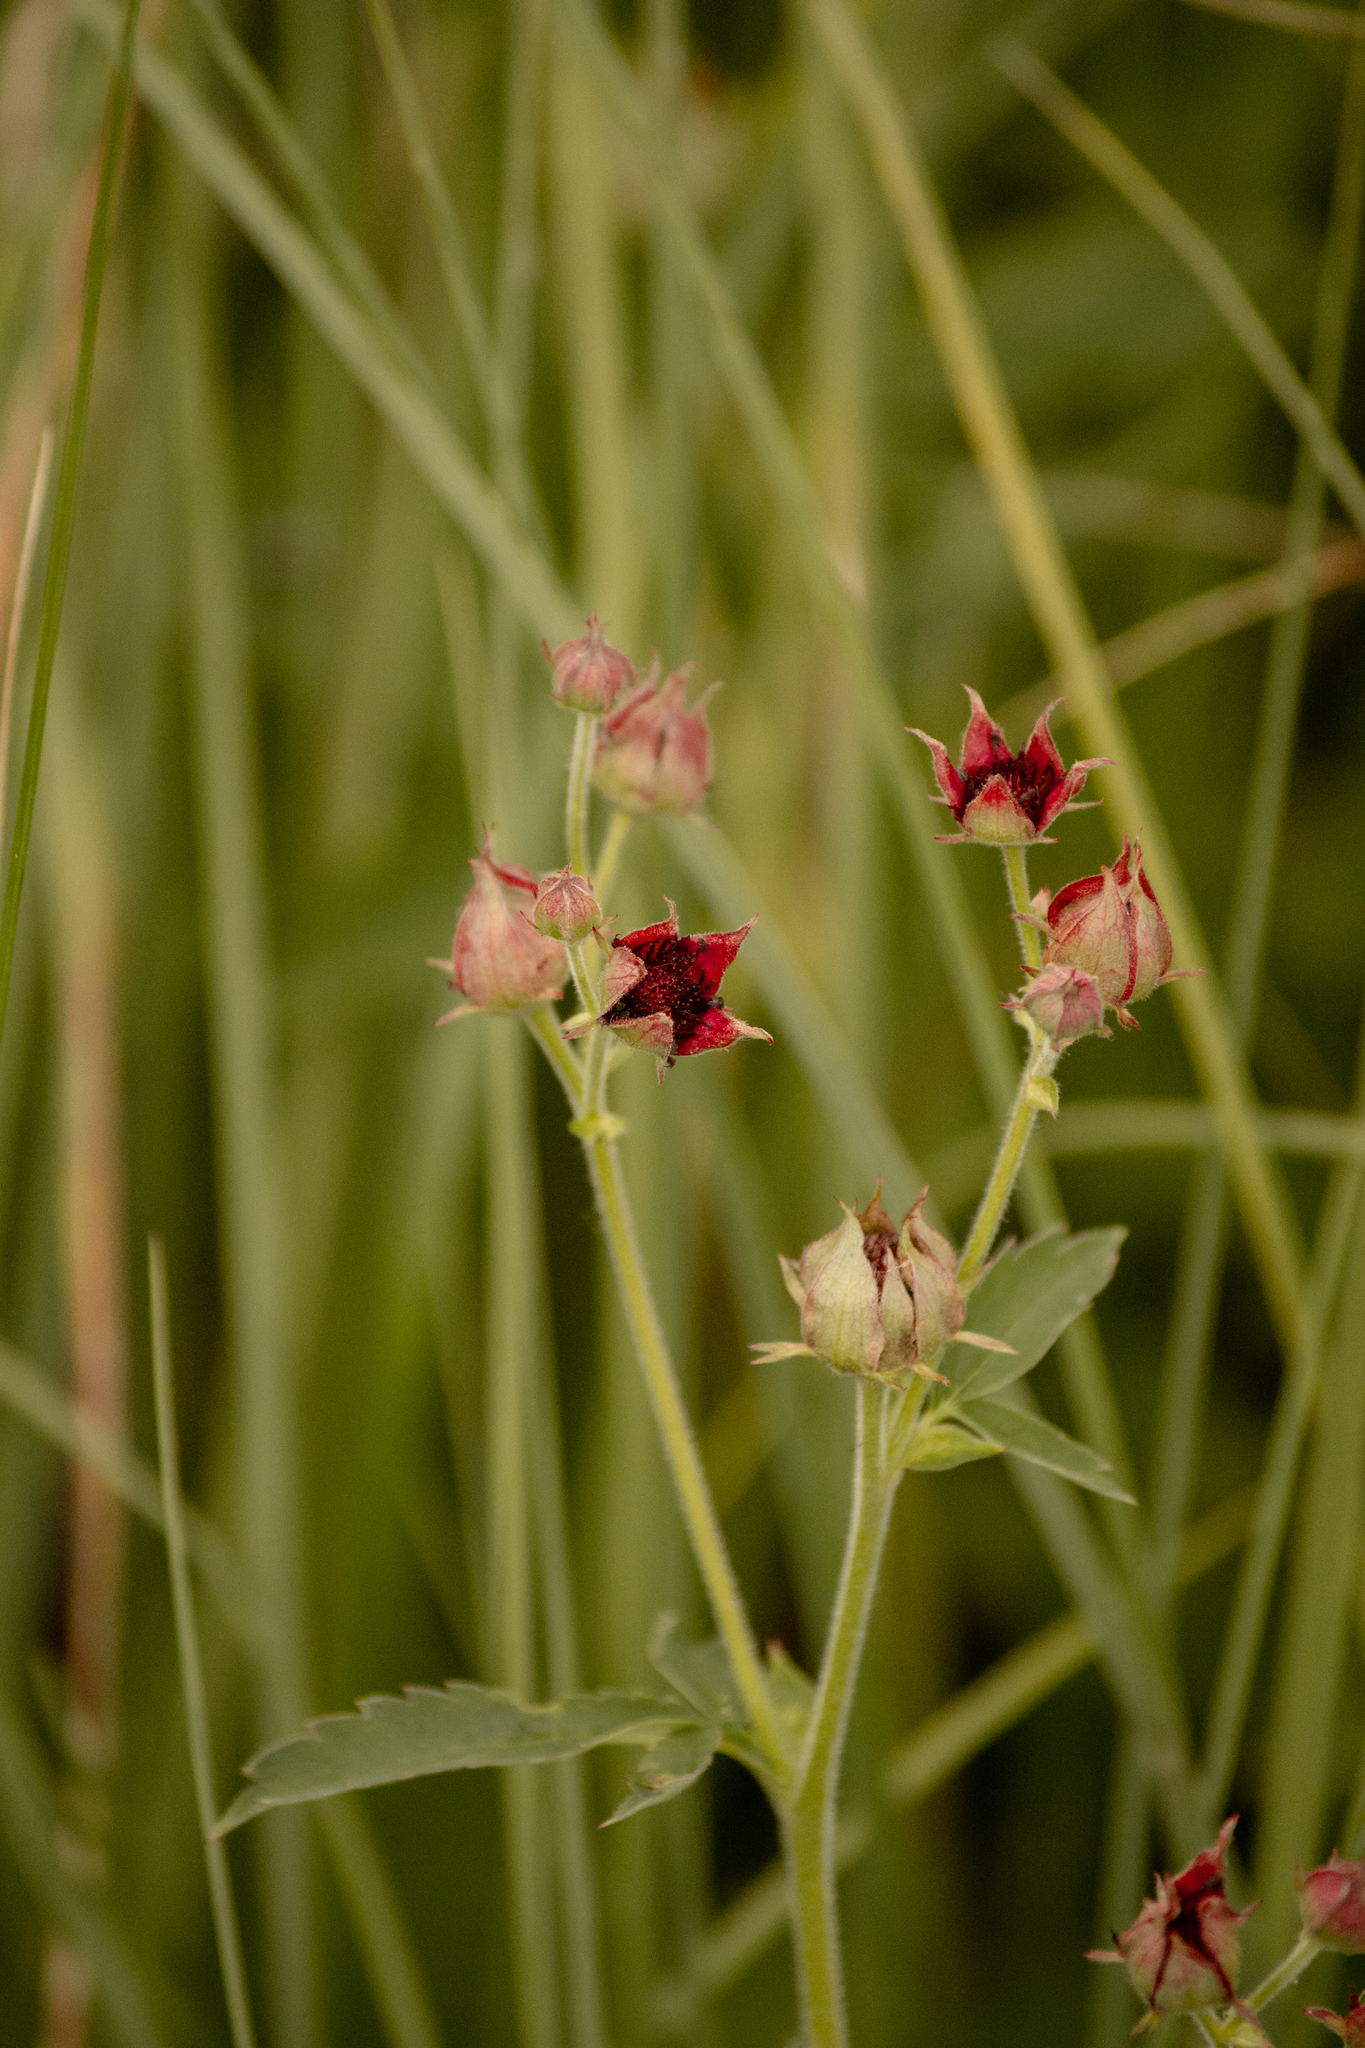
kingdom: Plantae
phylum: Tracheophyta
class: Magnoliopsida
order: Rosales
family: Rosaceae
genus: Comarum
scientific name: Comarum palustre
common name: Marsh cinquefoil
